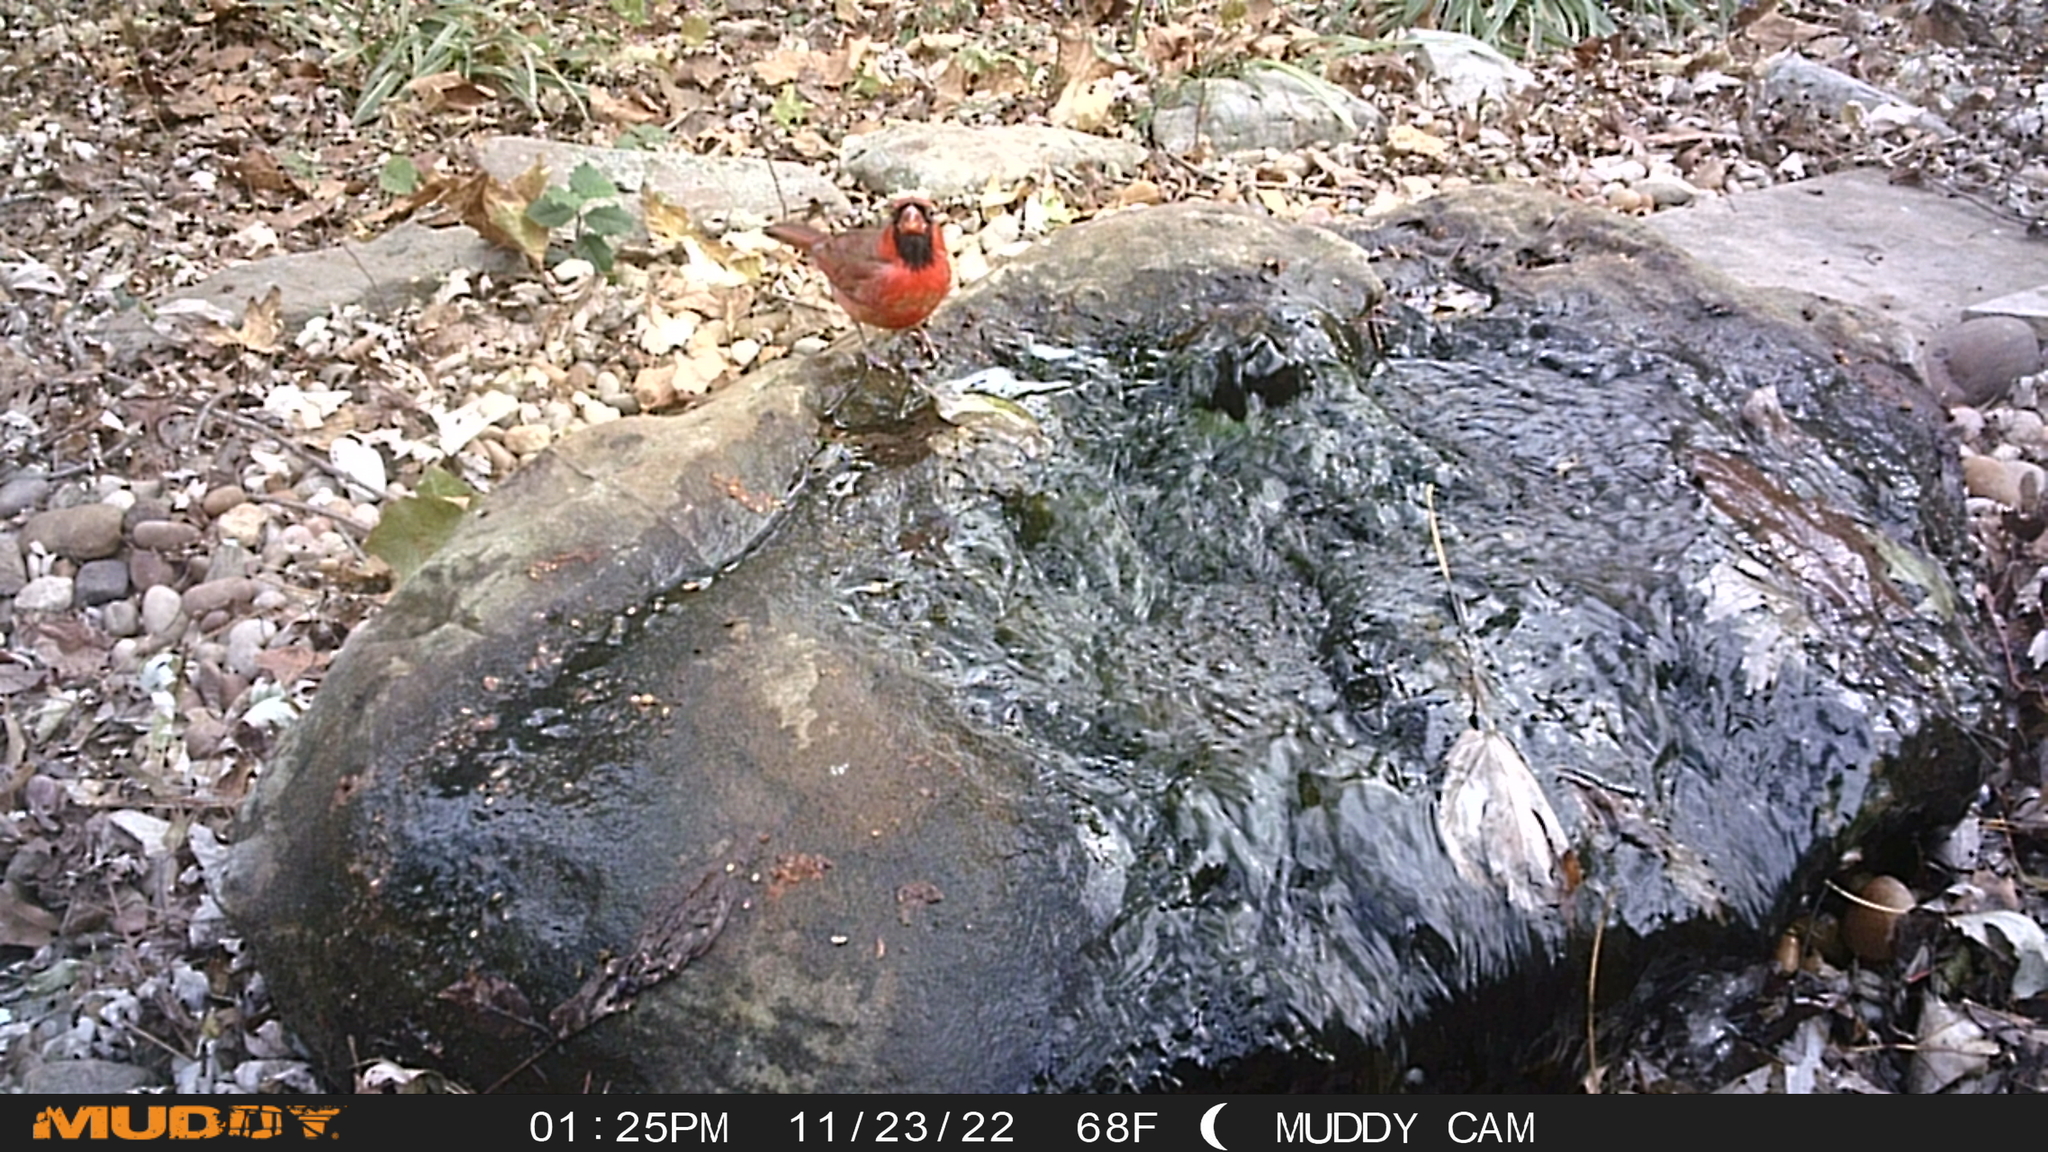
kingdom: Animalia
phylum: Chordata
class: Aves
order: Passeriformes
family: Cardinalidae
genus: Cardinalis
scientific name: Cardinalis cardinalis
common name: Northern cardinal
